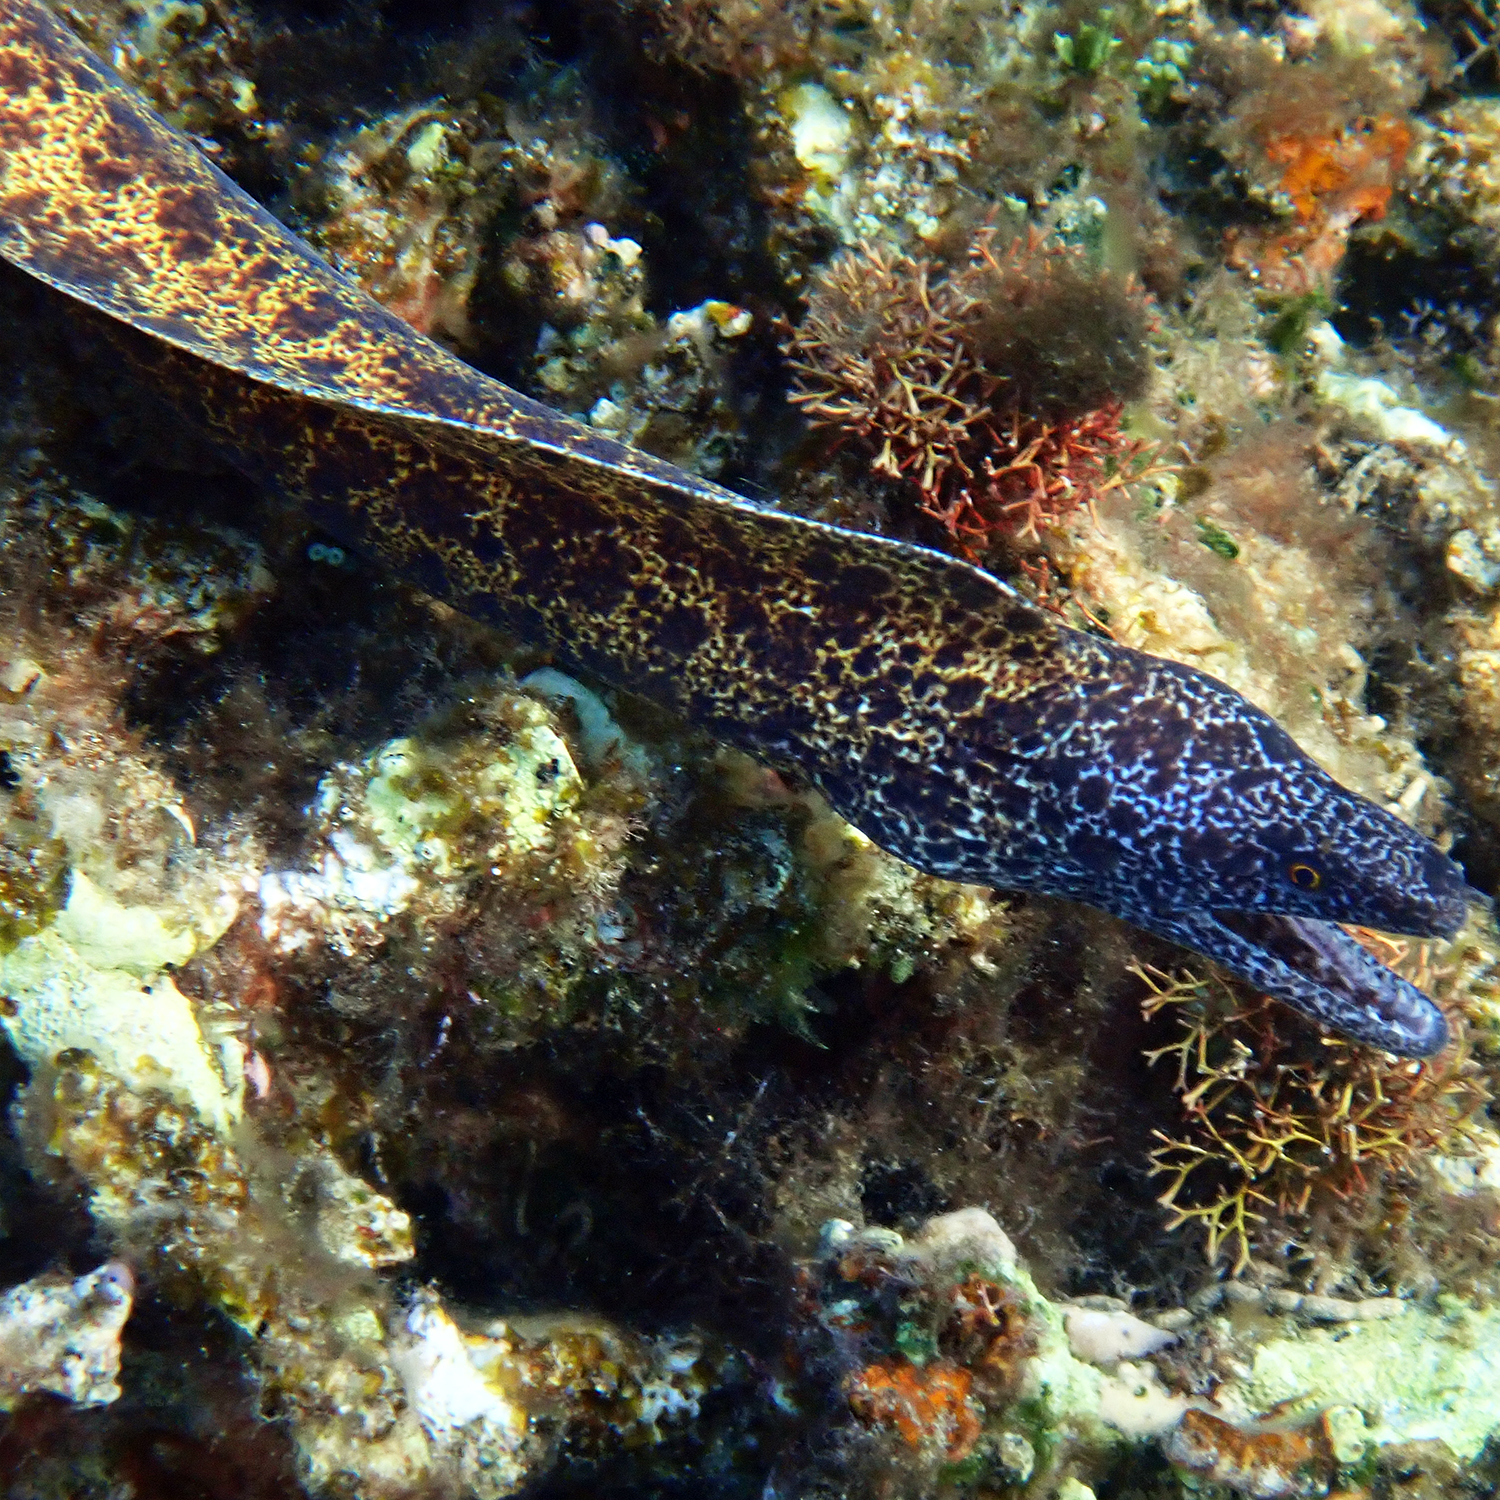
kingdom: Animalia
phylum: Chordata
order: Anguilliformes
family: Muraenidae
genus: Gymnothorax
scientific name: Gymnothorax annasona
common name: Lord howe island moray
